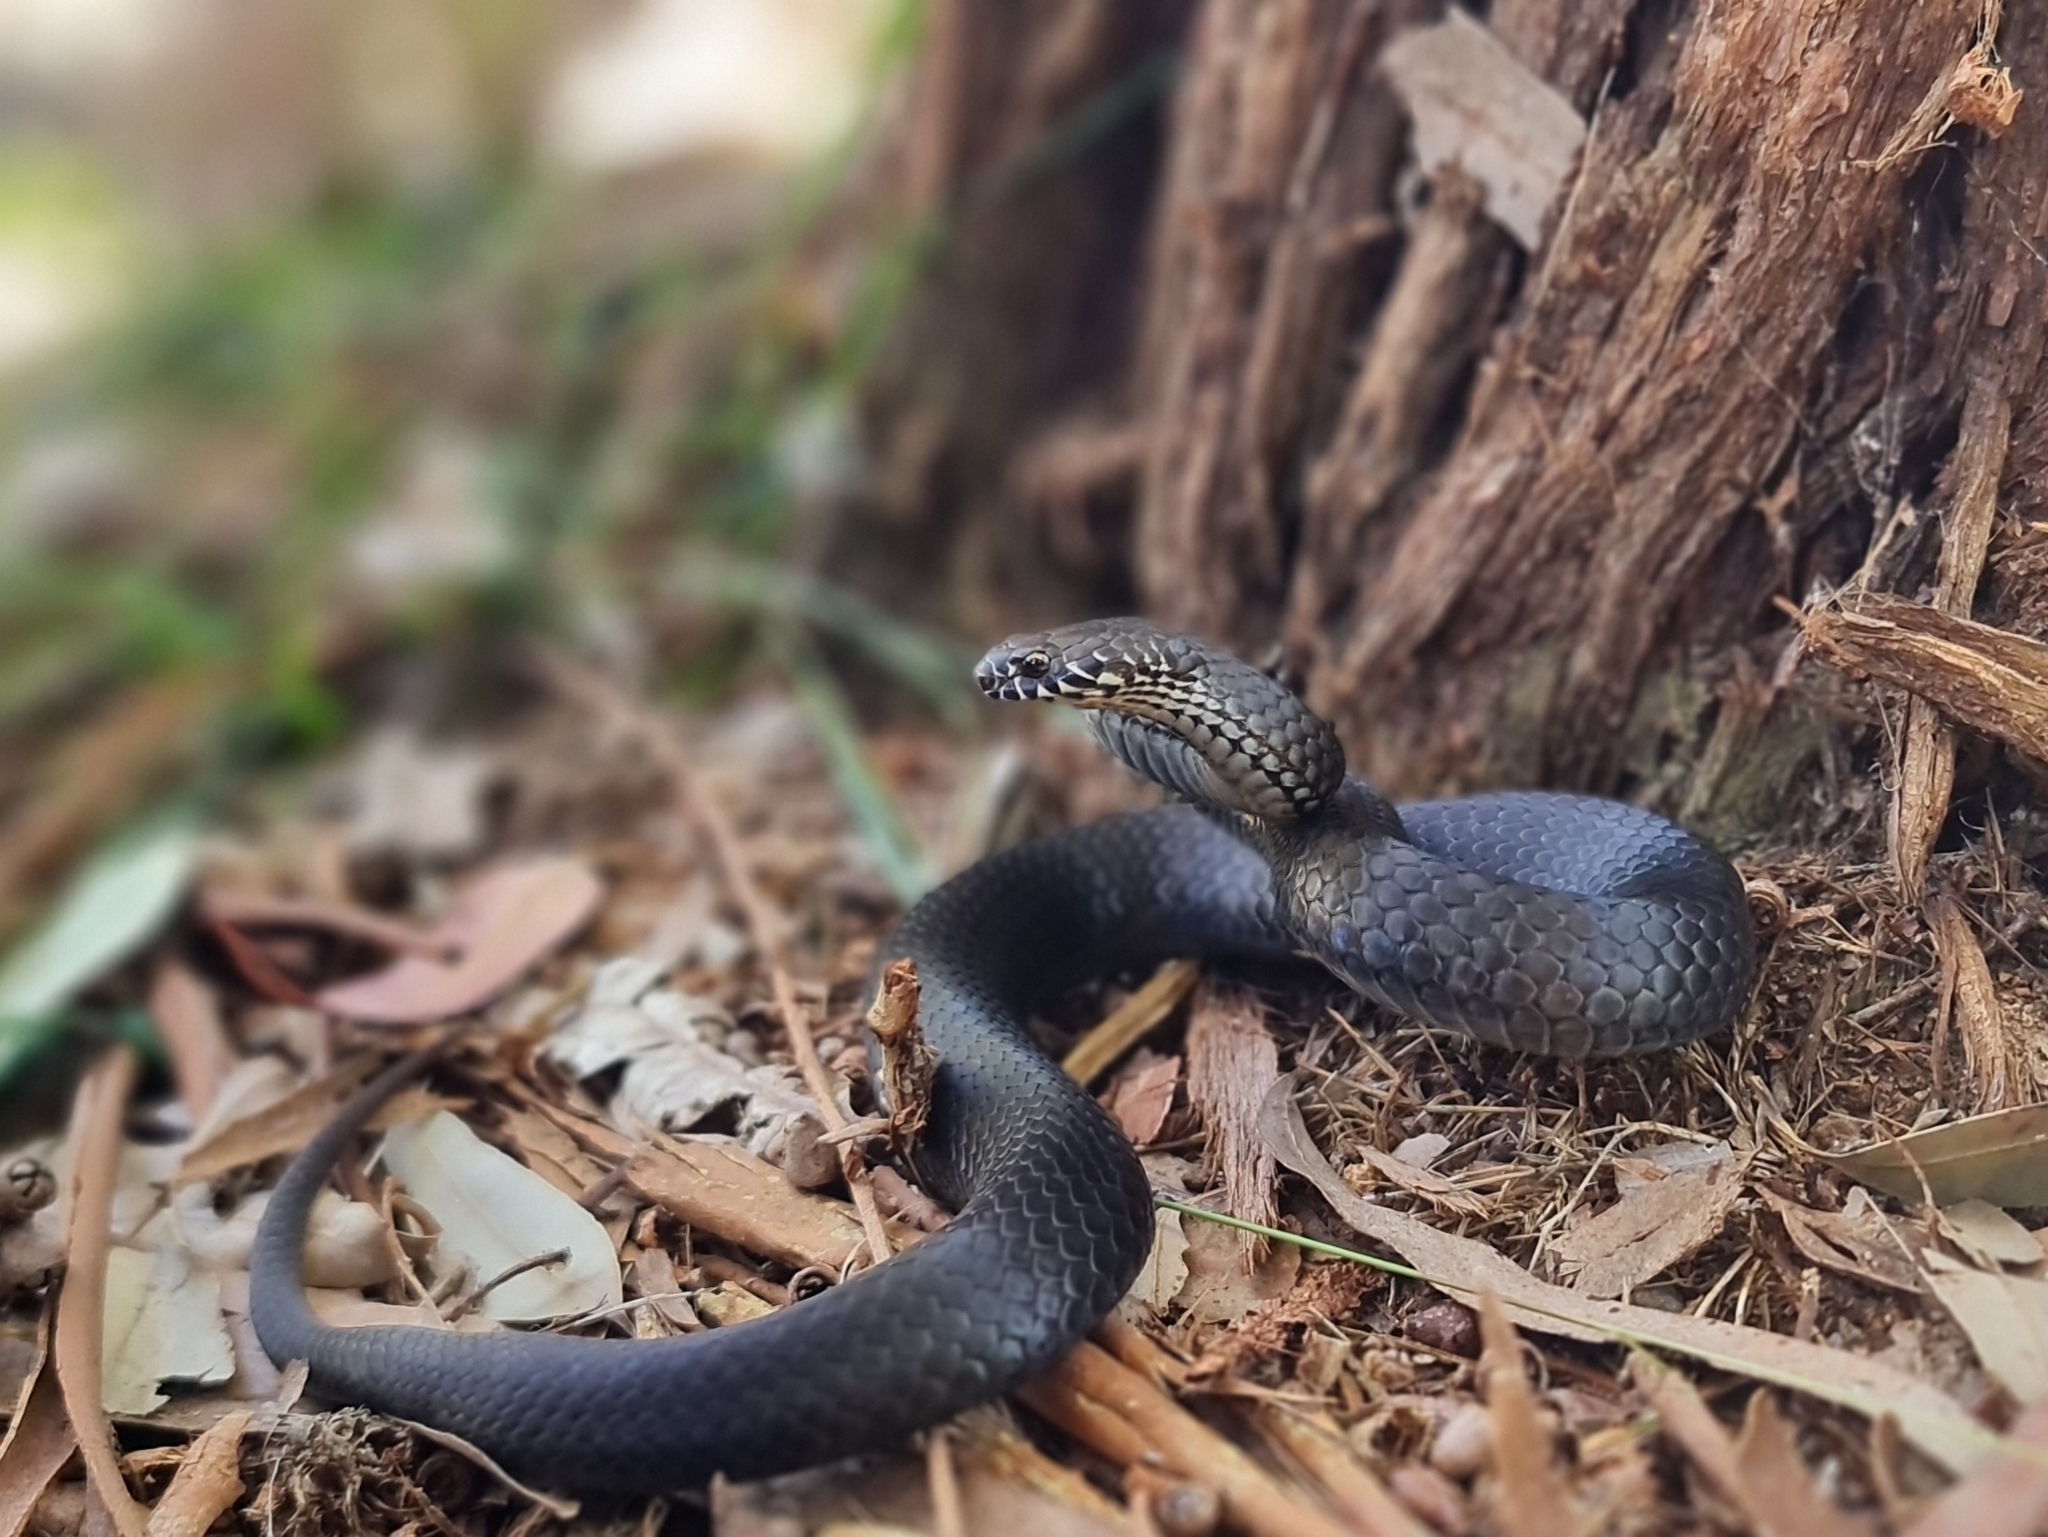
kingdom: Animalia
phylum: Chordata
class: Squamata
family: Elapidae
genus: Austrelaps
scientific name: Austrelaps labialis
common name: Pygmy copperhead
